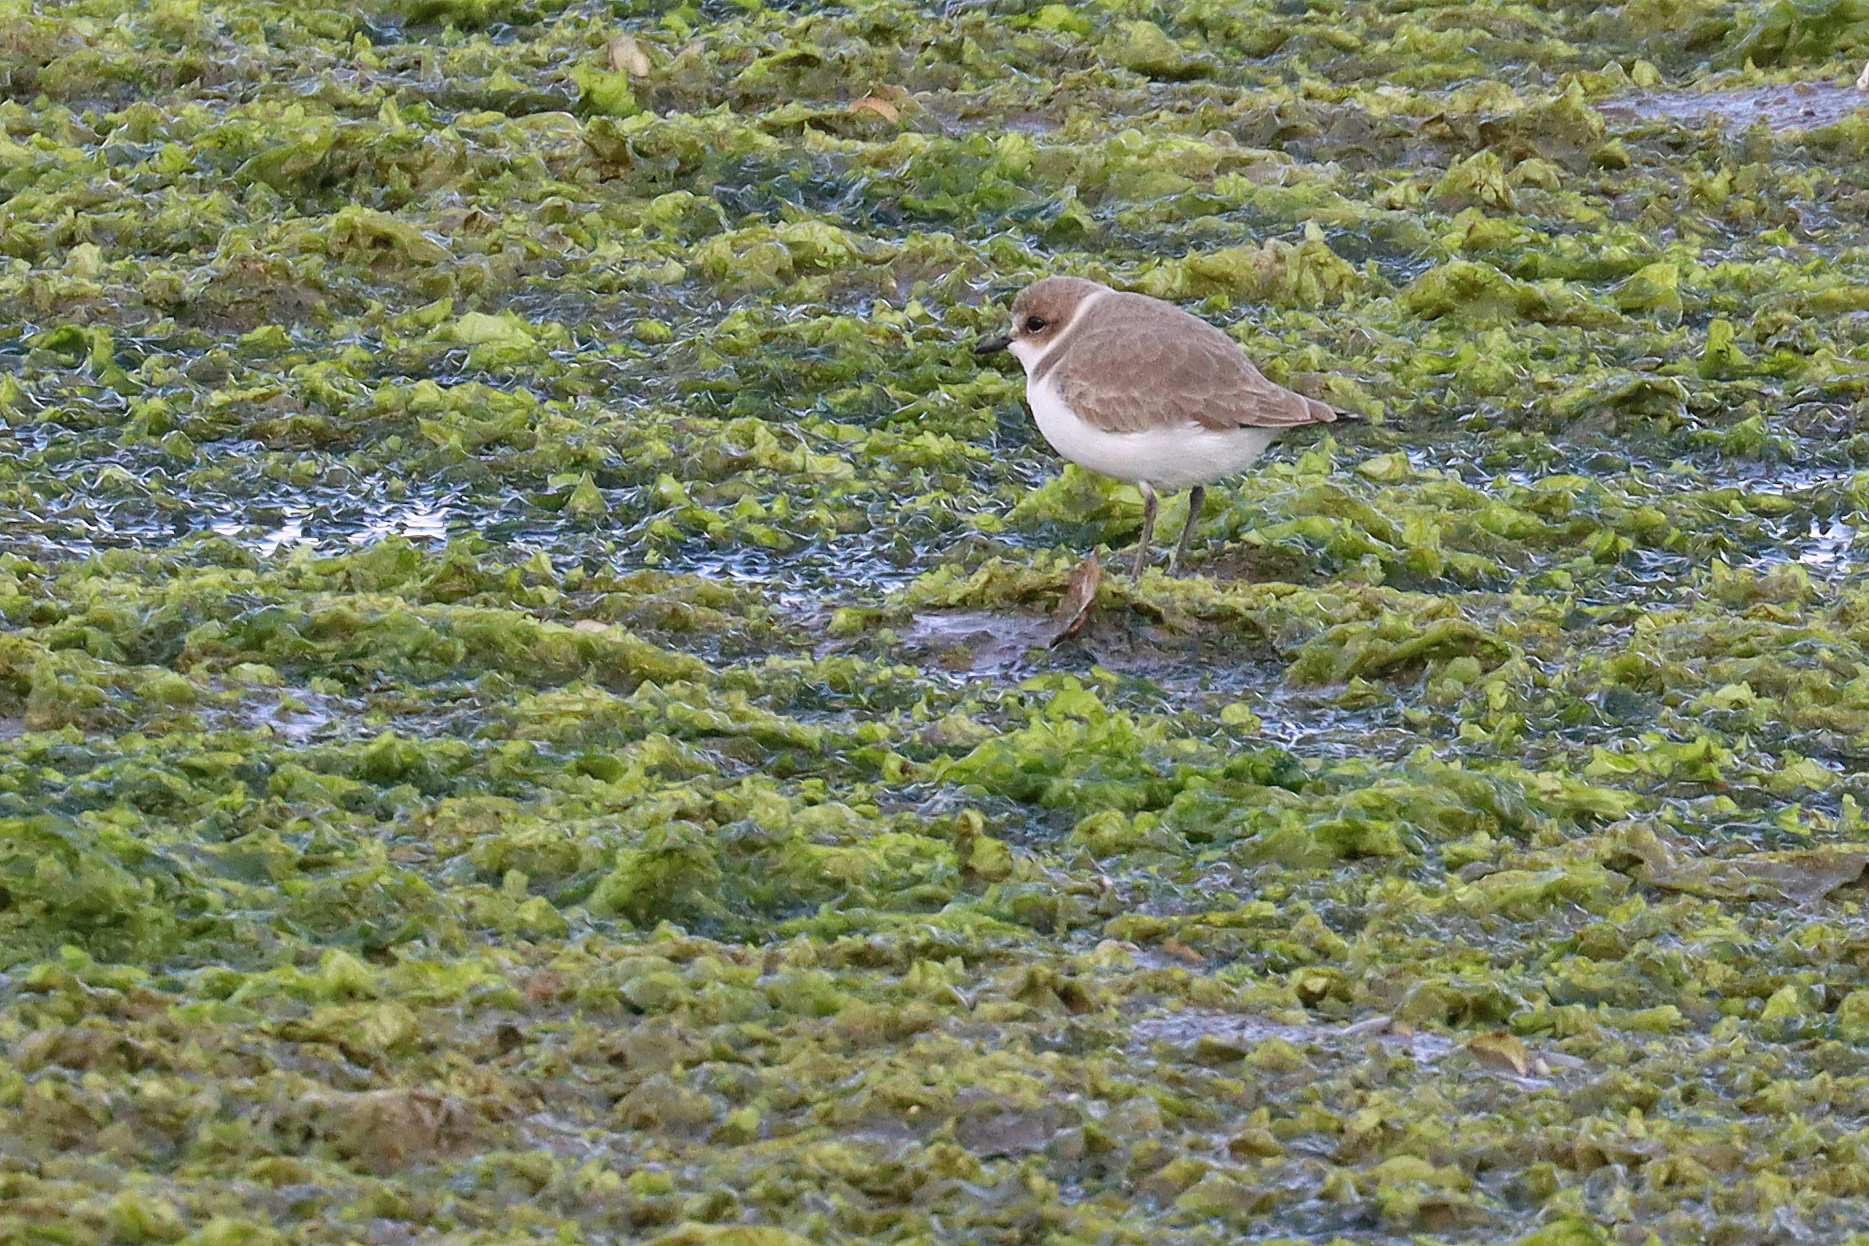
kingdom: Animalia
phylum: Chordata
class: Aves
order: Charadriiformes
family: Charadriidae
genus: Charadrius
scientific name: Charadrius alexandrinus
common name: Kentish plover
